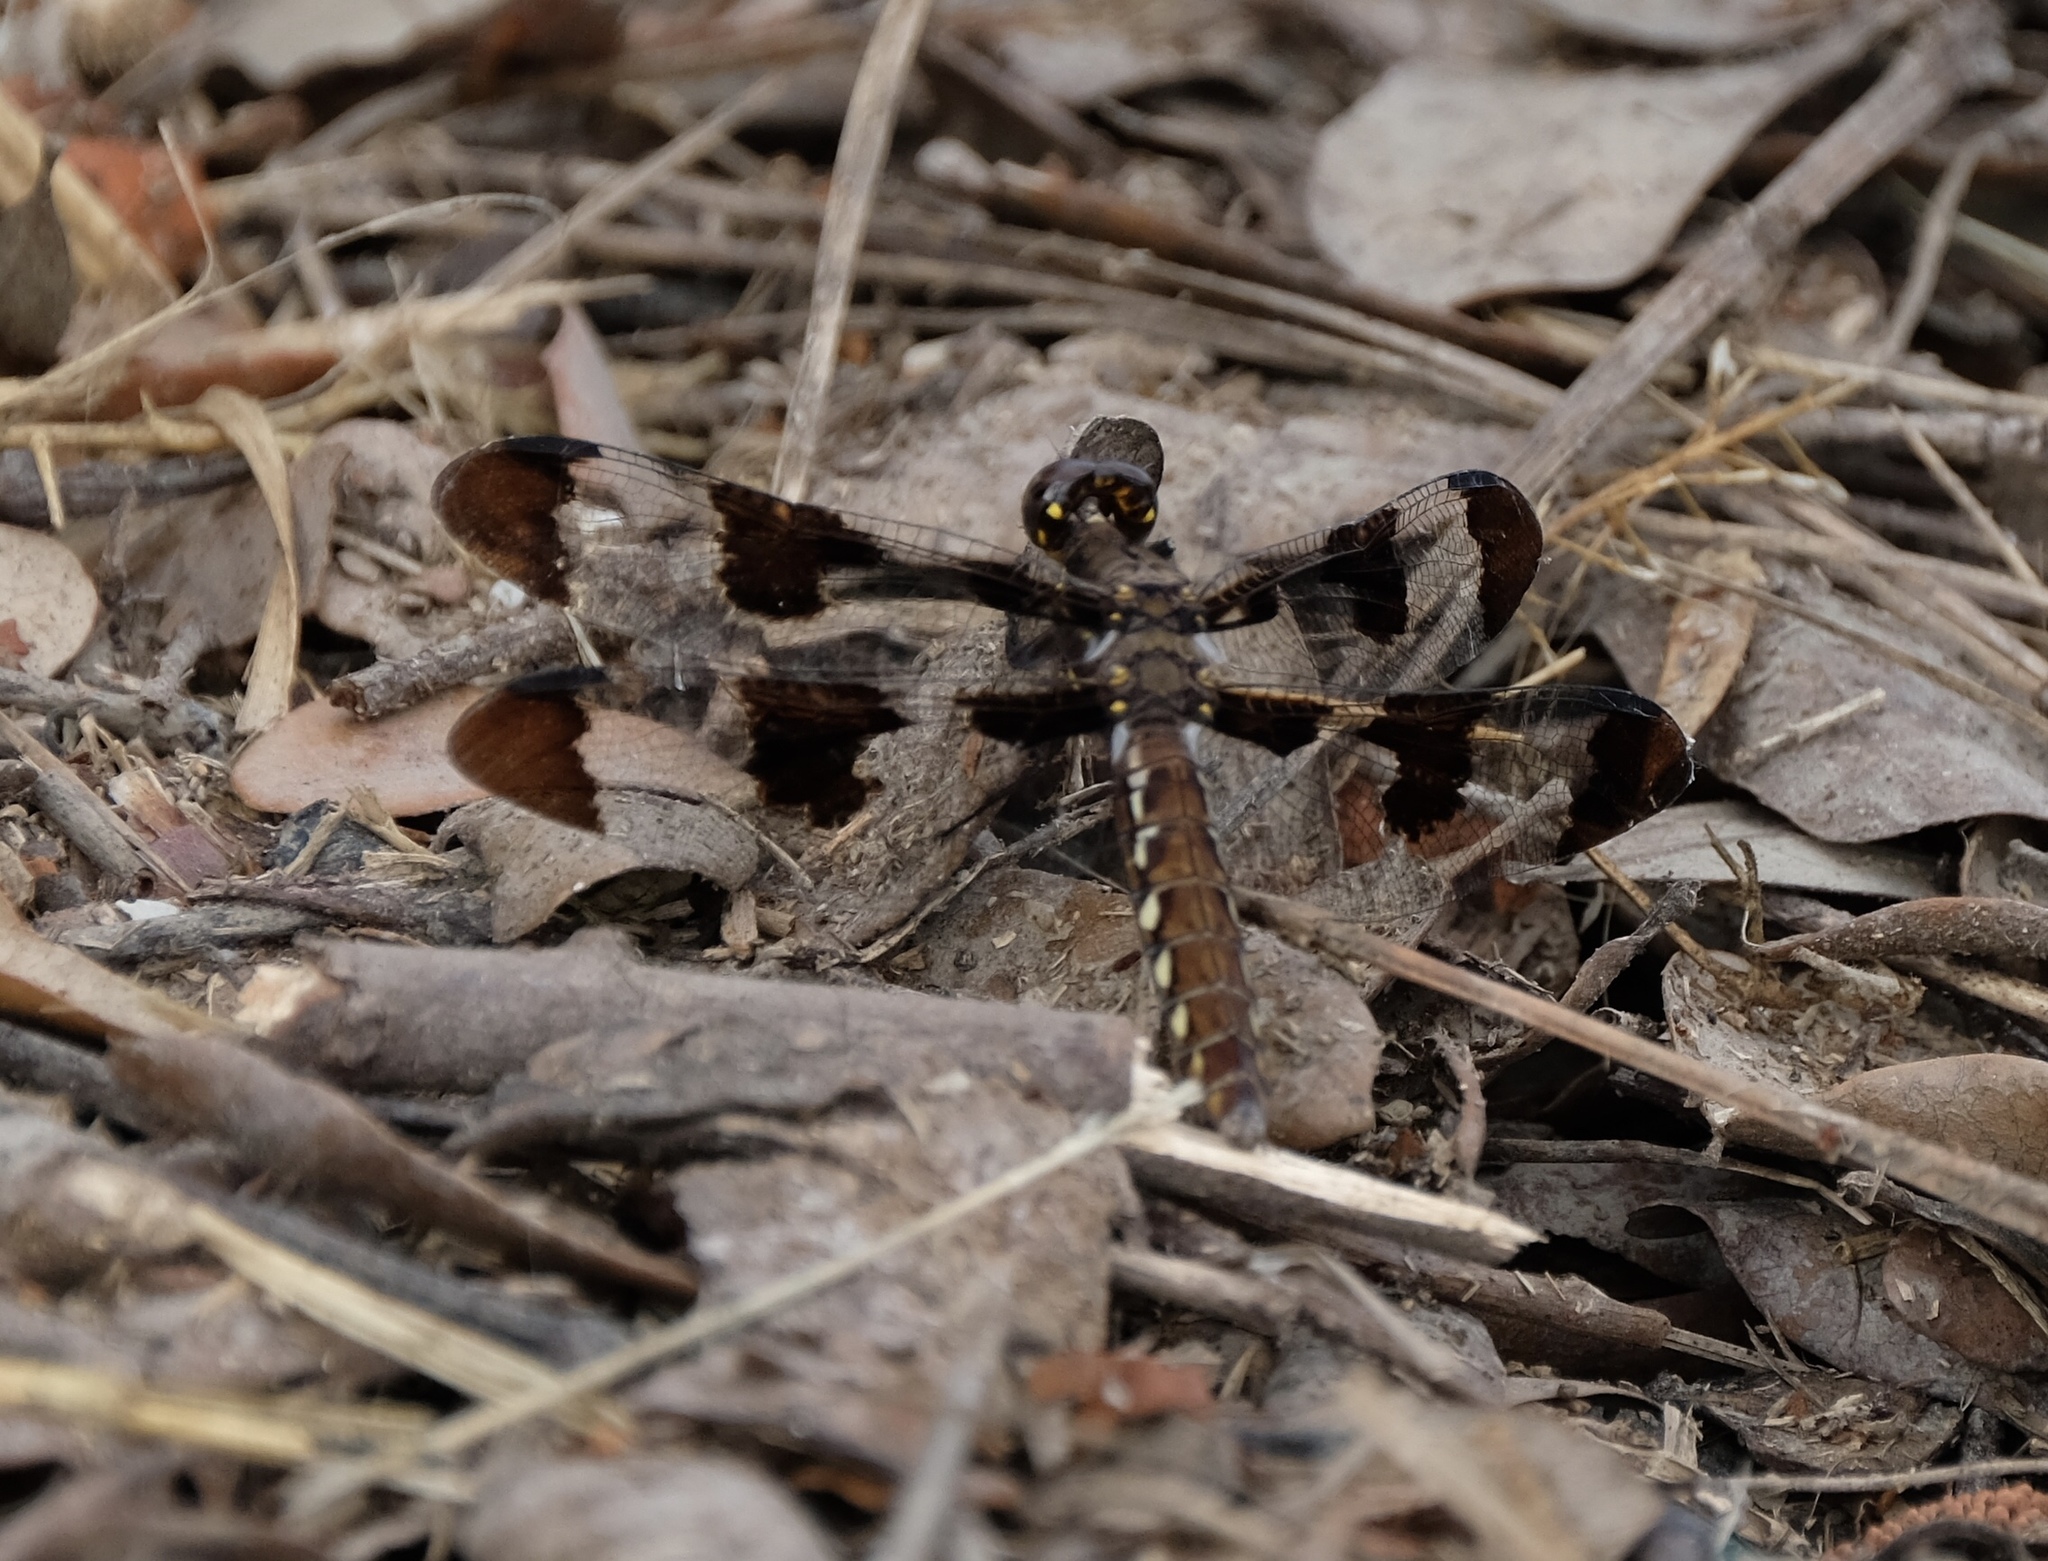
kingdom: Animalia
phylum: Arthropoda
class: Insecta
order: Odonata
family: Libellulidae
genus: Plathemis
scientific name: Plathemis lydia
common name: Common whitetail
